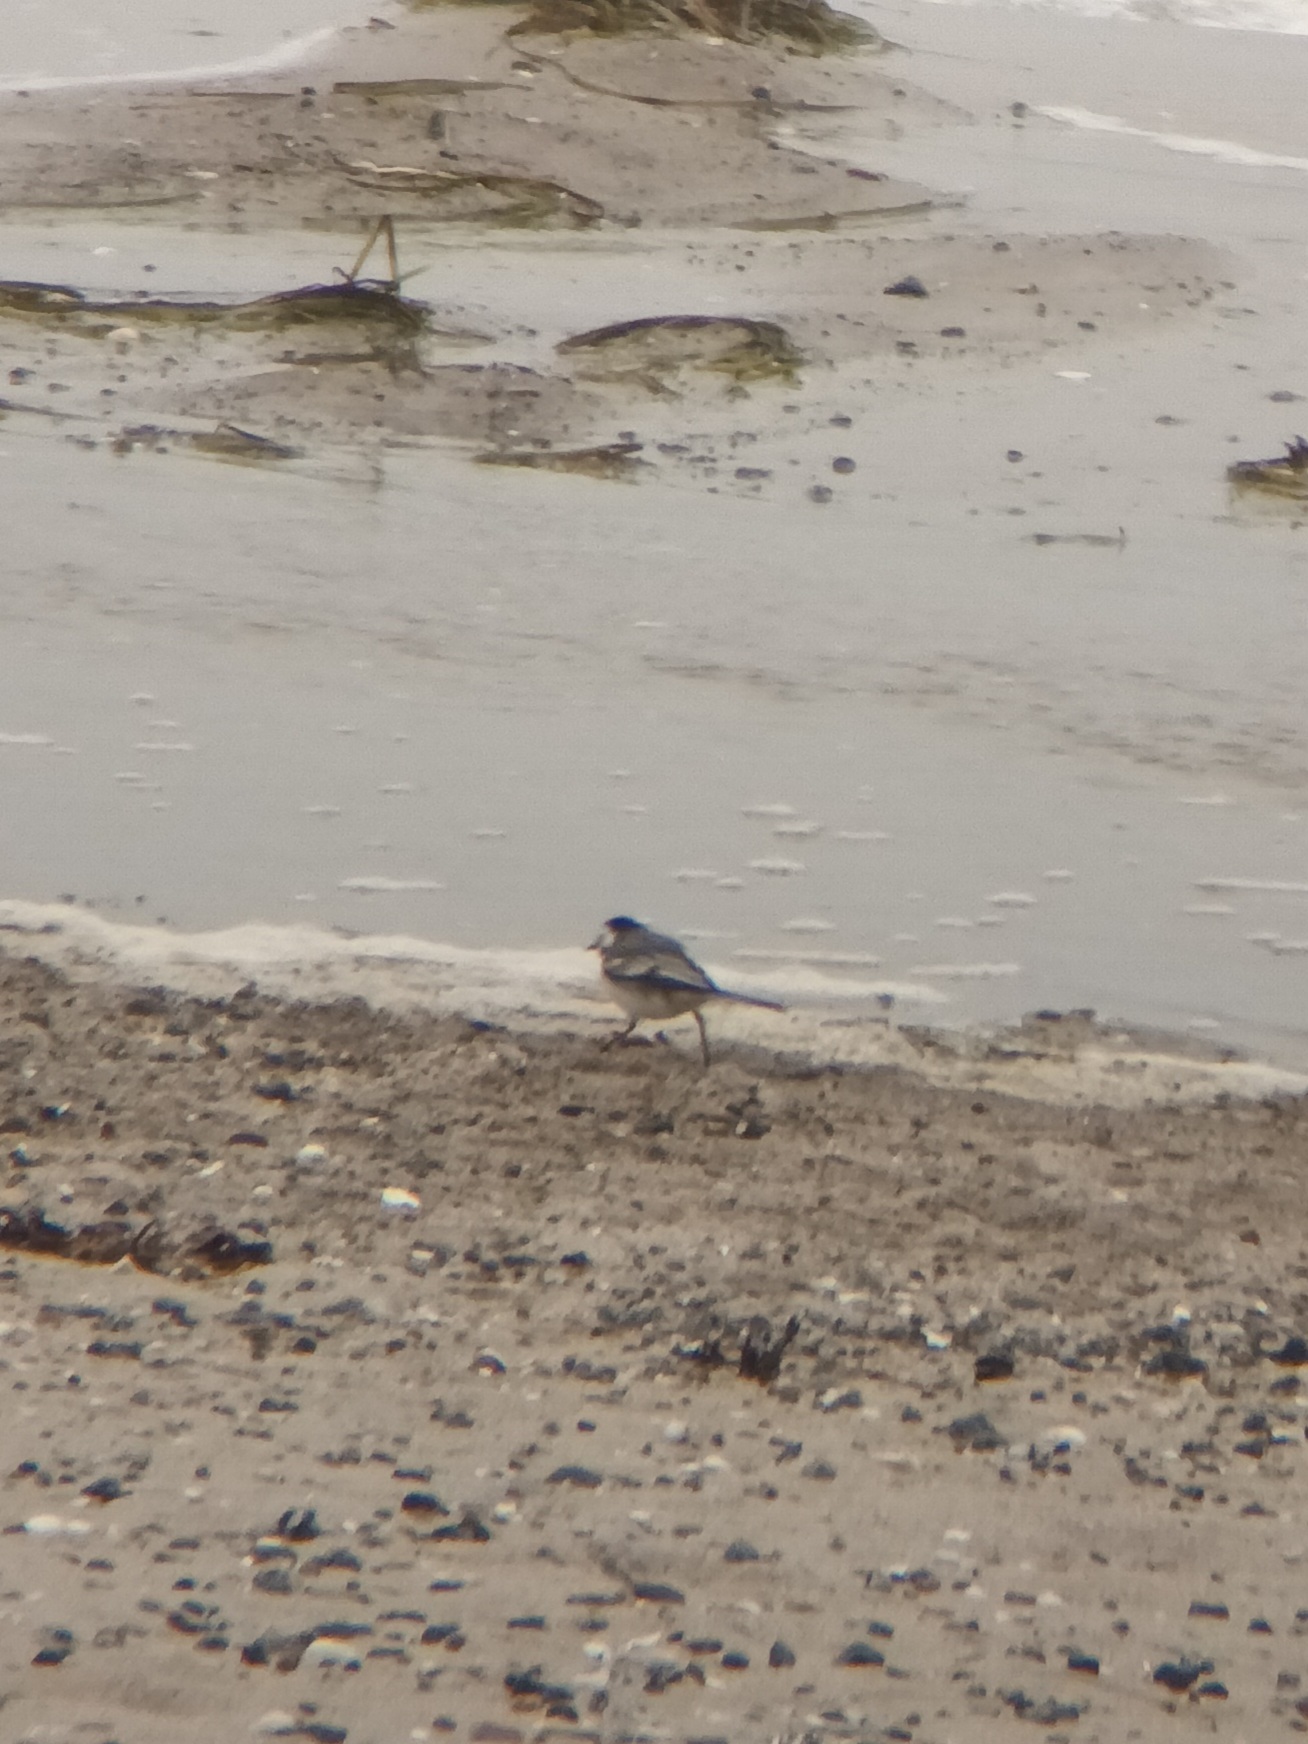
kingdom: Animalia
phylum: Chordata
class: Aves
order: Passeriformes
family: Motacillidae
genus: Motacilla
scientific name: Motacilla alba
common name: White wagtail
